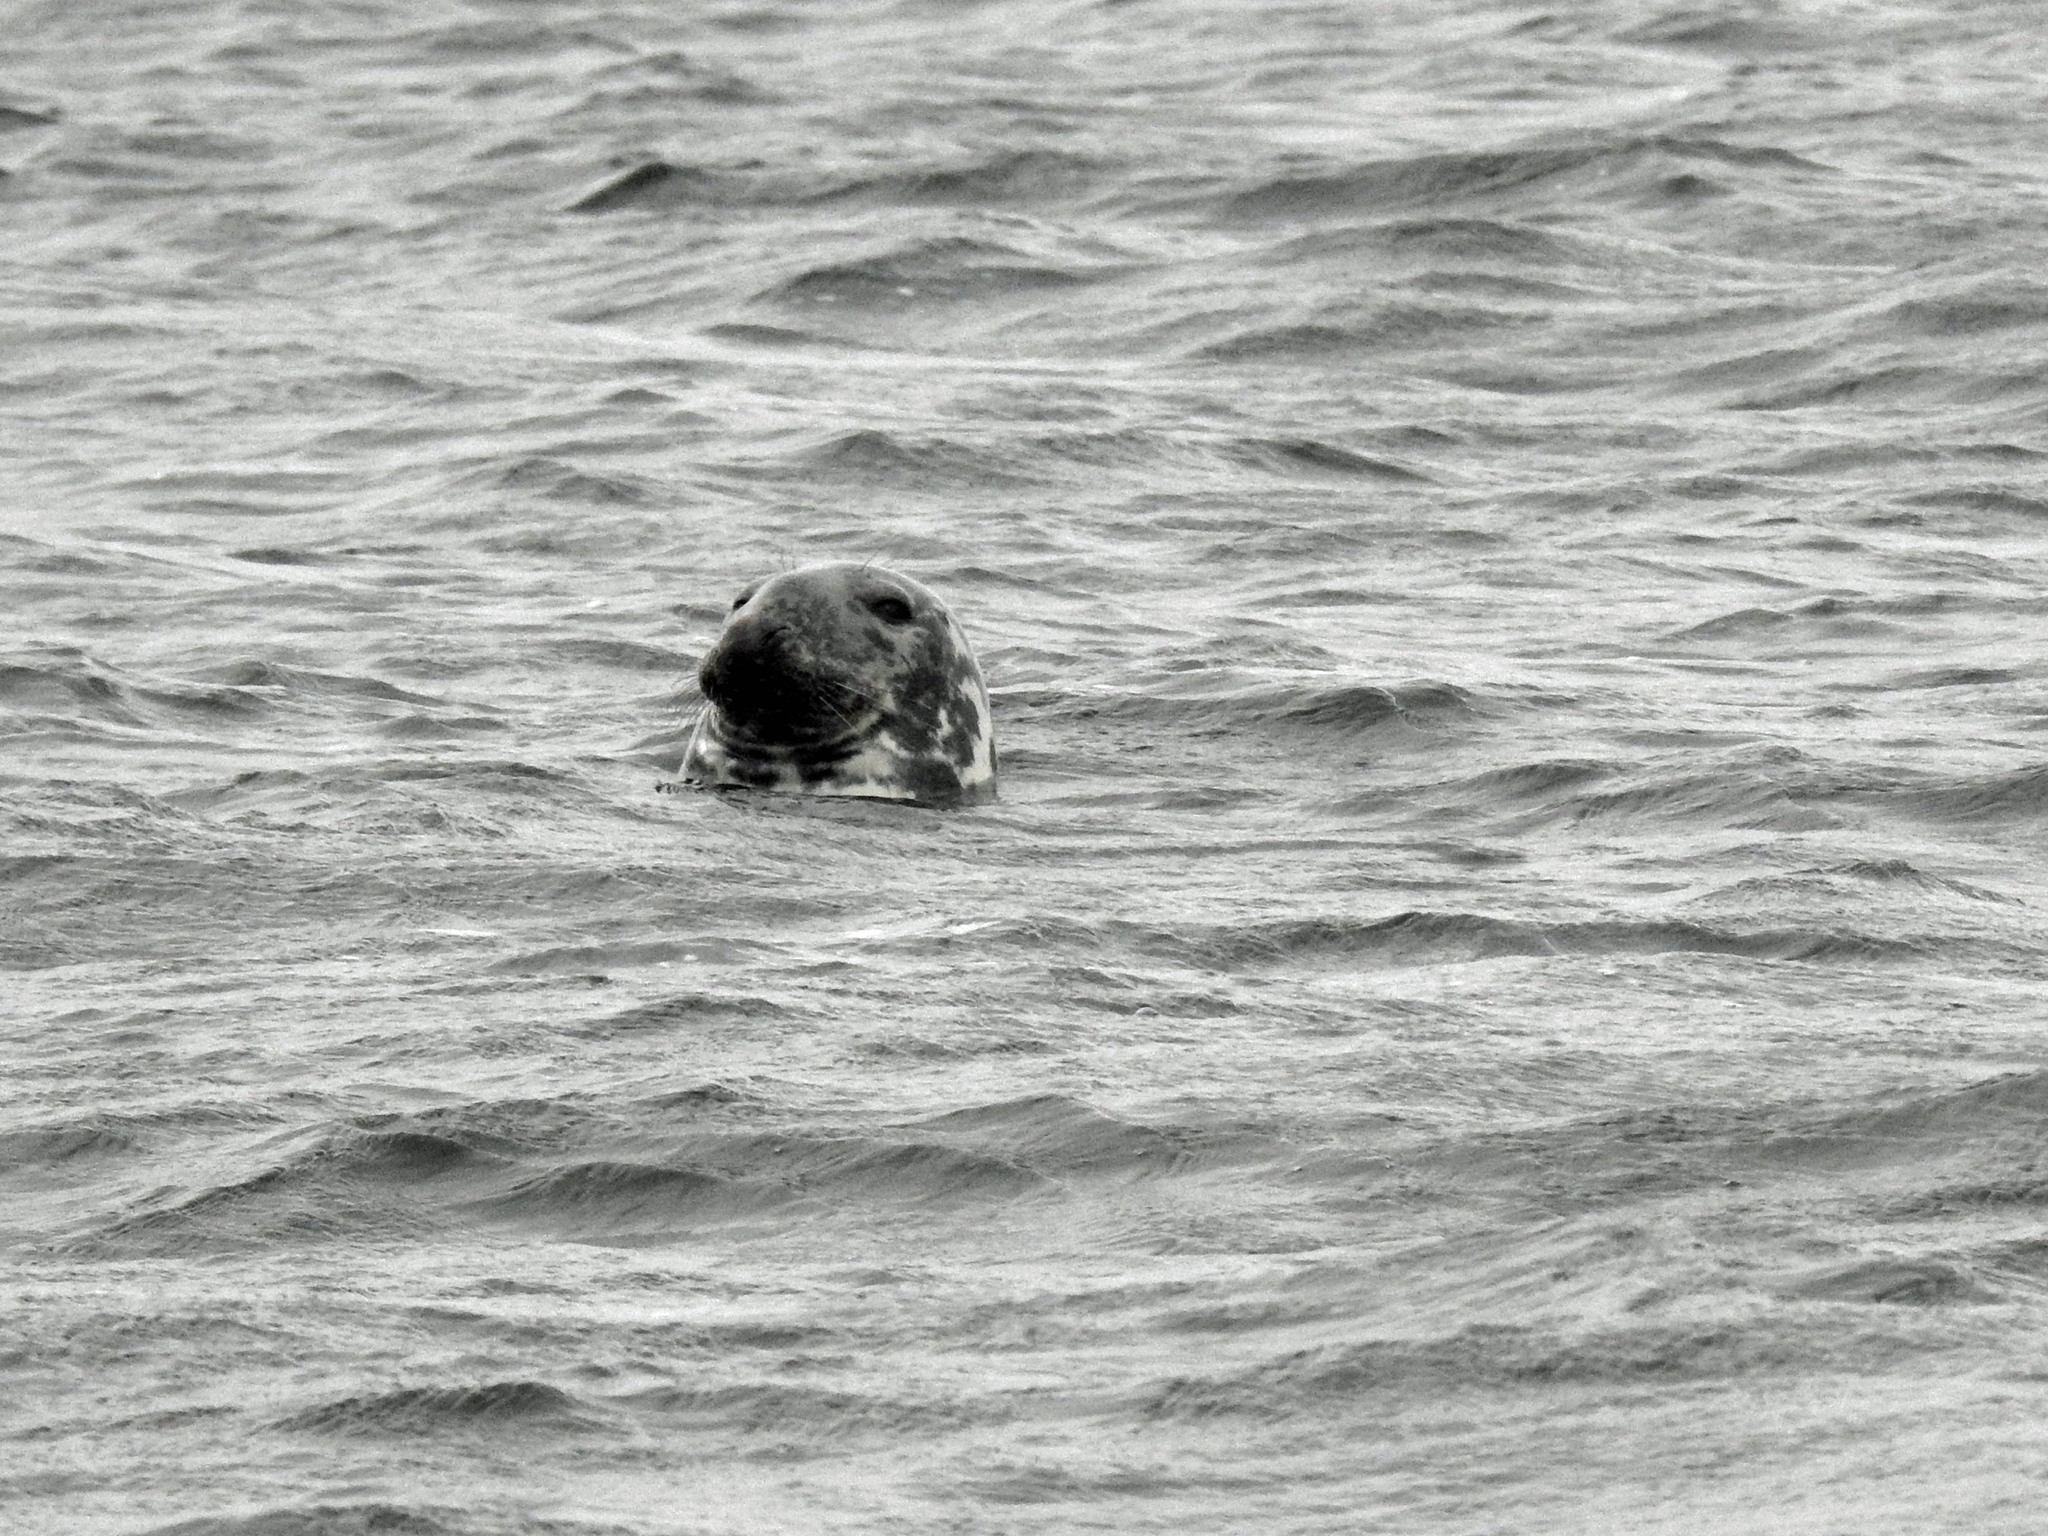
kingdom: Animalia
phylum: Chordata
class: Mammalia
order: Carnivora
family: Phocidae
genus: Halichoerus
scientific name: Halichoerus grypus
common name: Grey seal
